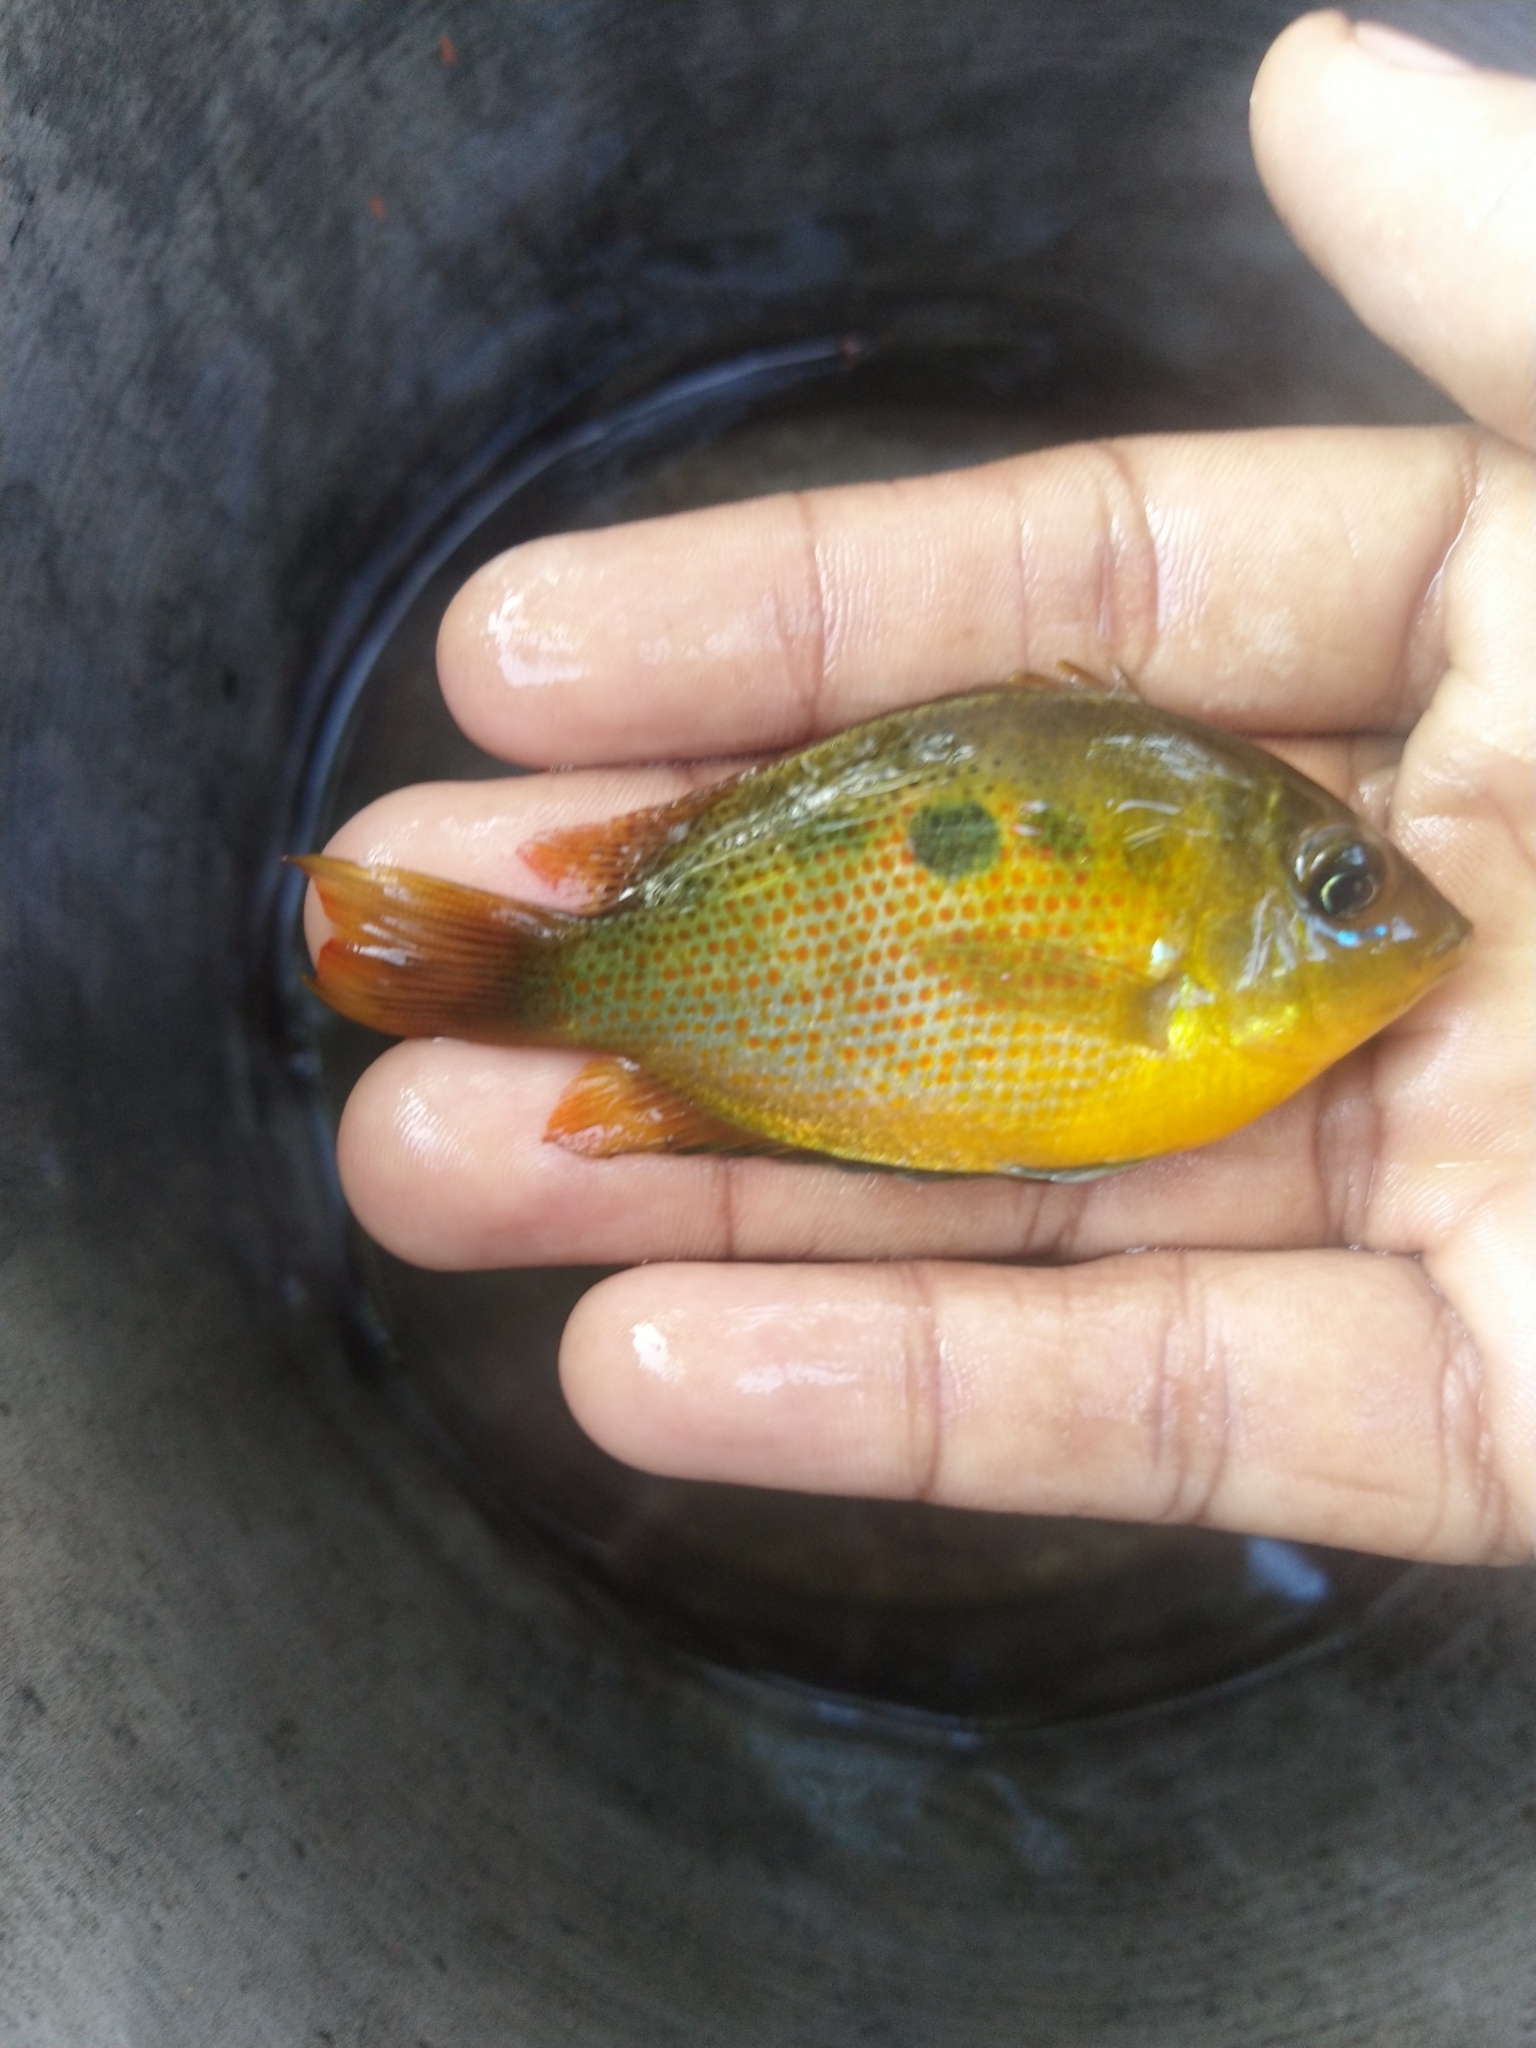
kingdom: Animalia
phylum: Chordata
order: Perciformes
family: Cichlidae
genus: Etroplus
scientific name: Etroplus maculatus
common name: Orange chromide
